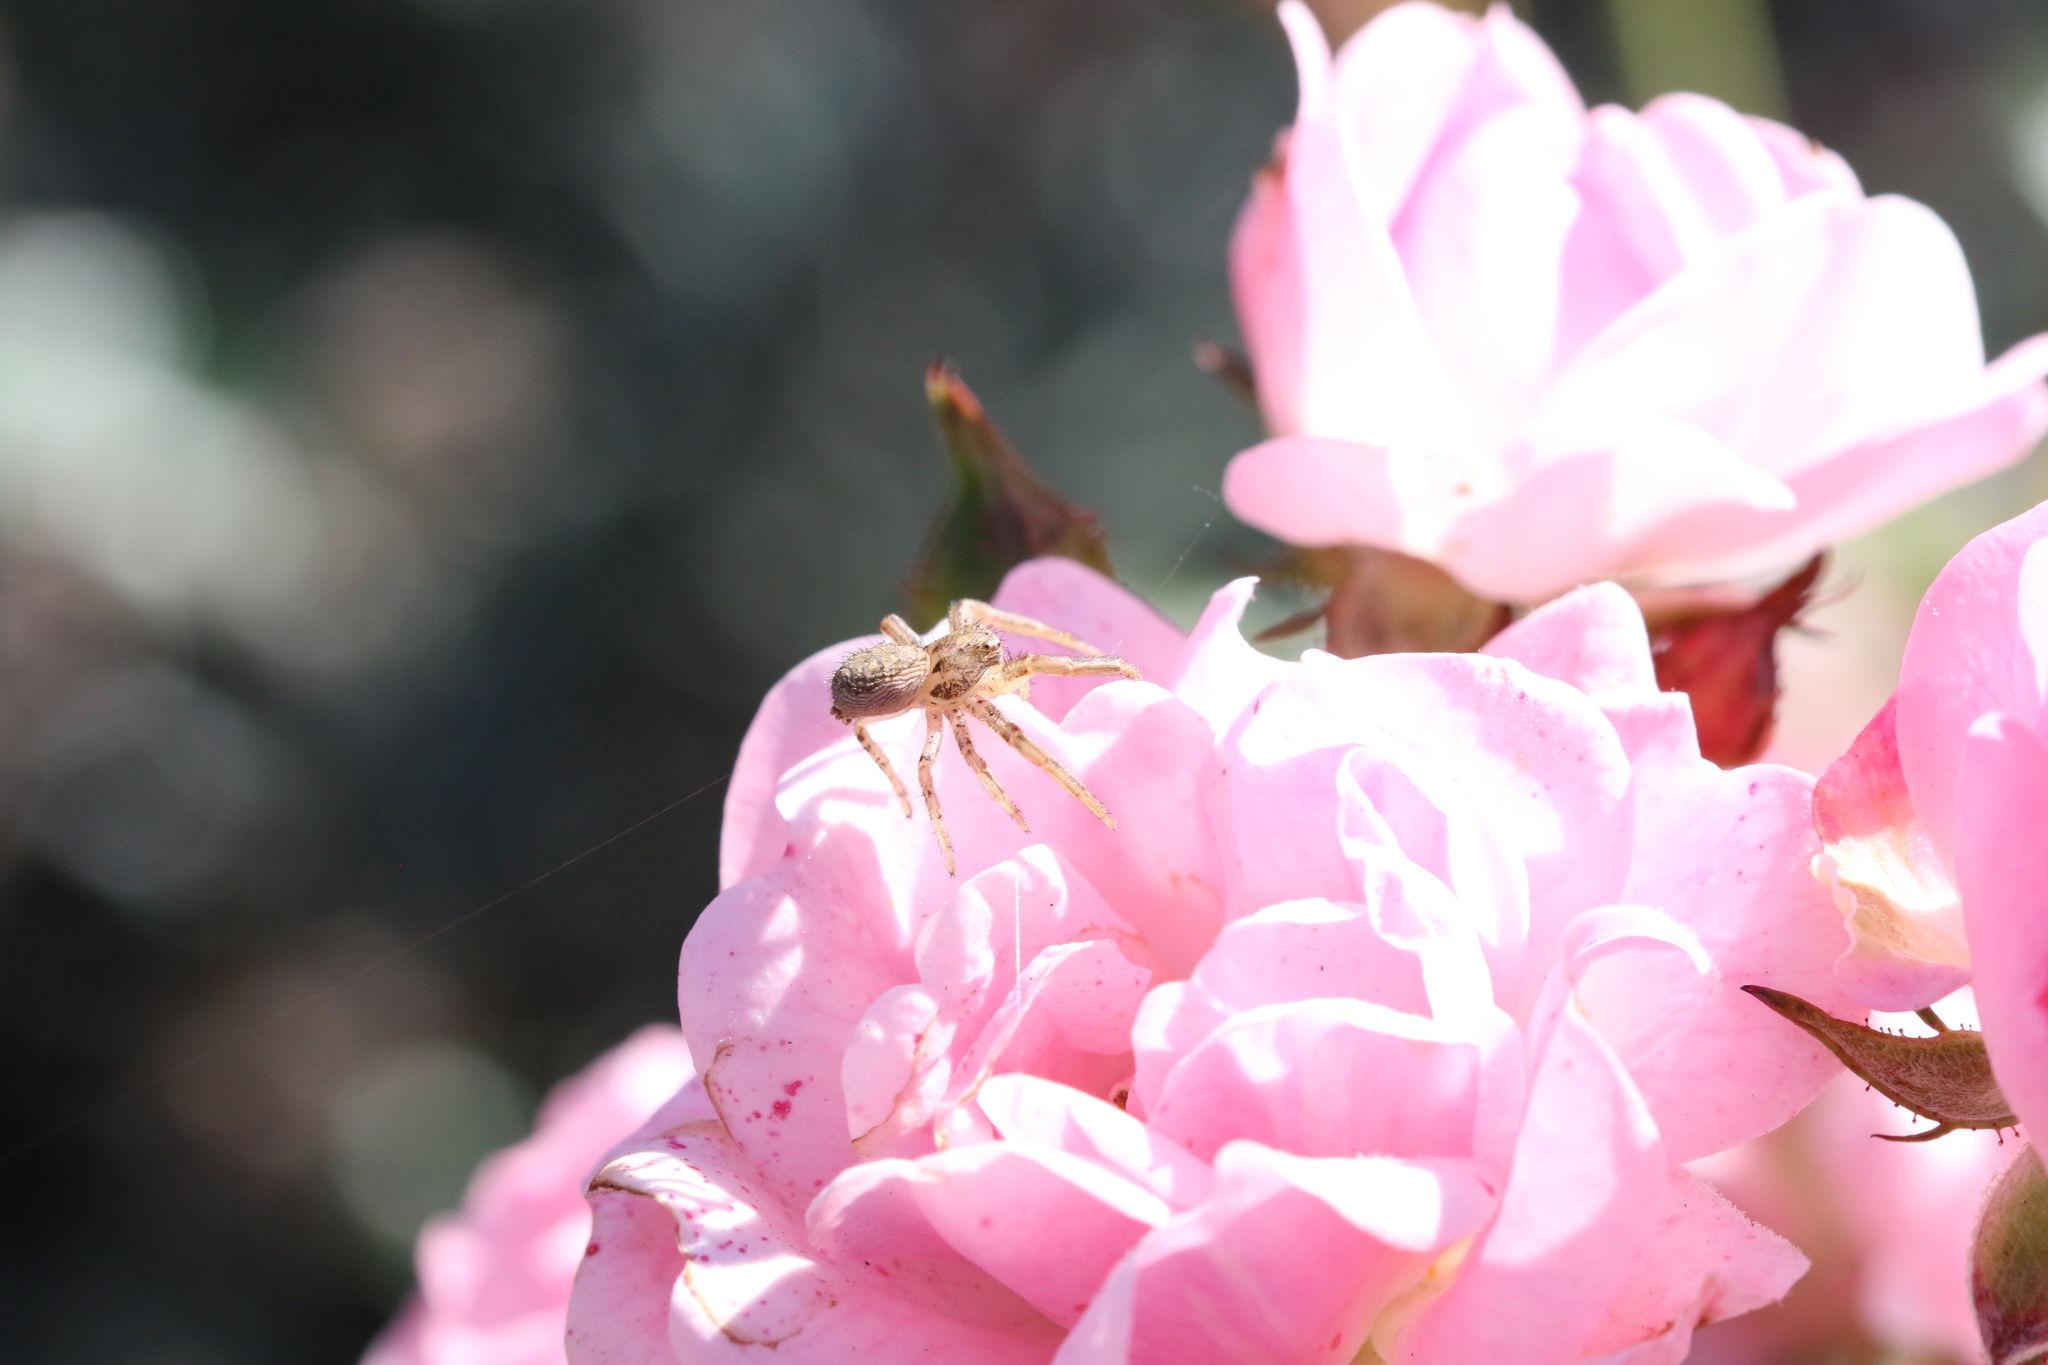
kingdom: Animalia
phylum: Arthropoda
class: Arachnida
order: Araneae
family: Thomisidae
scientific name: Thomisidae
